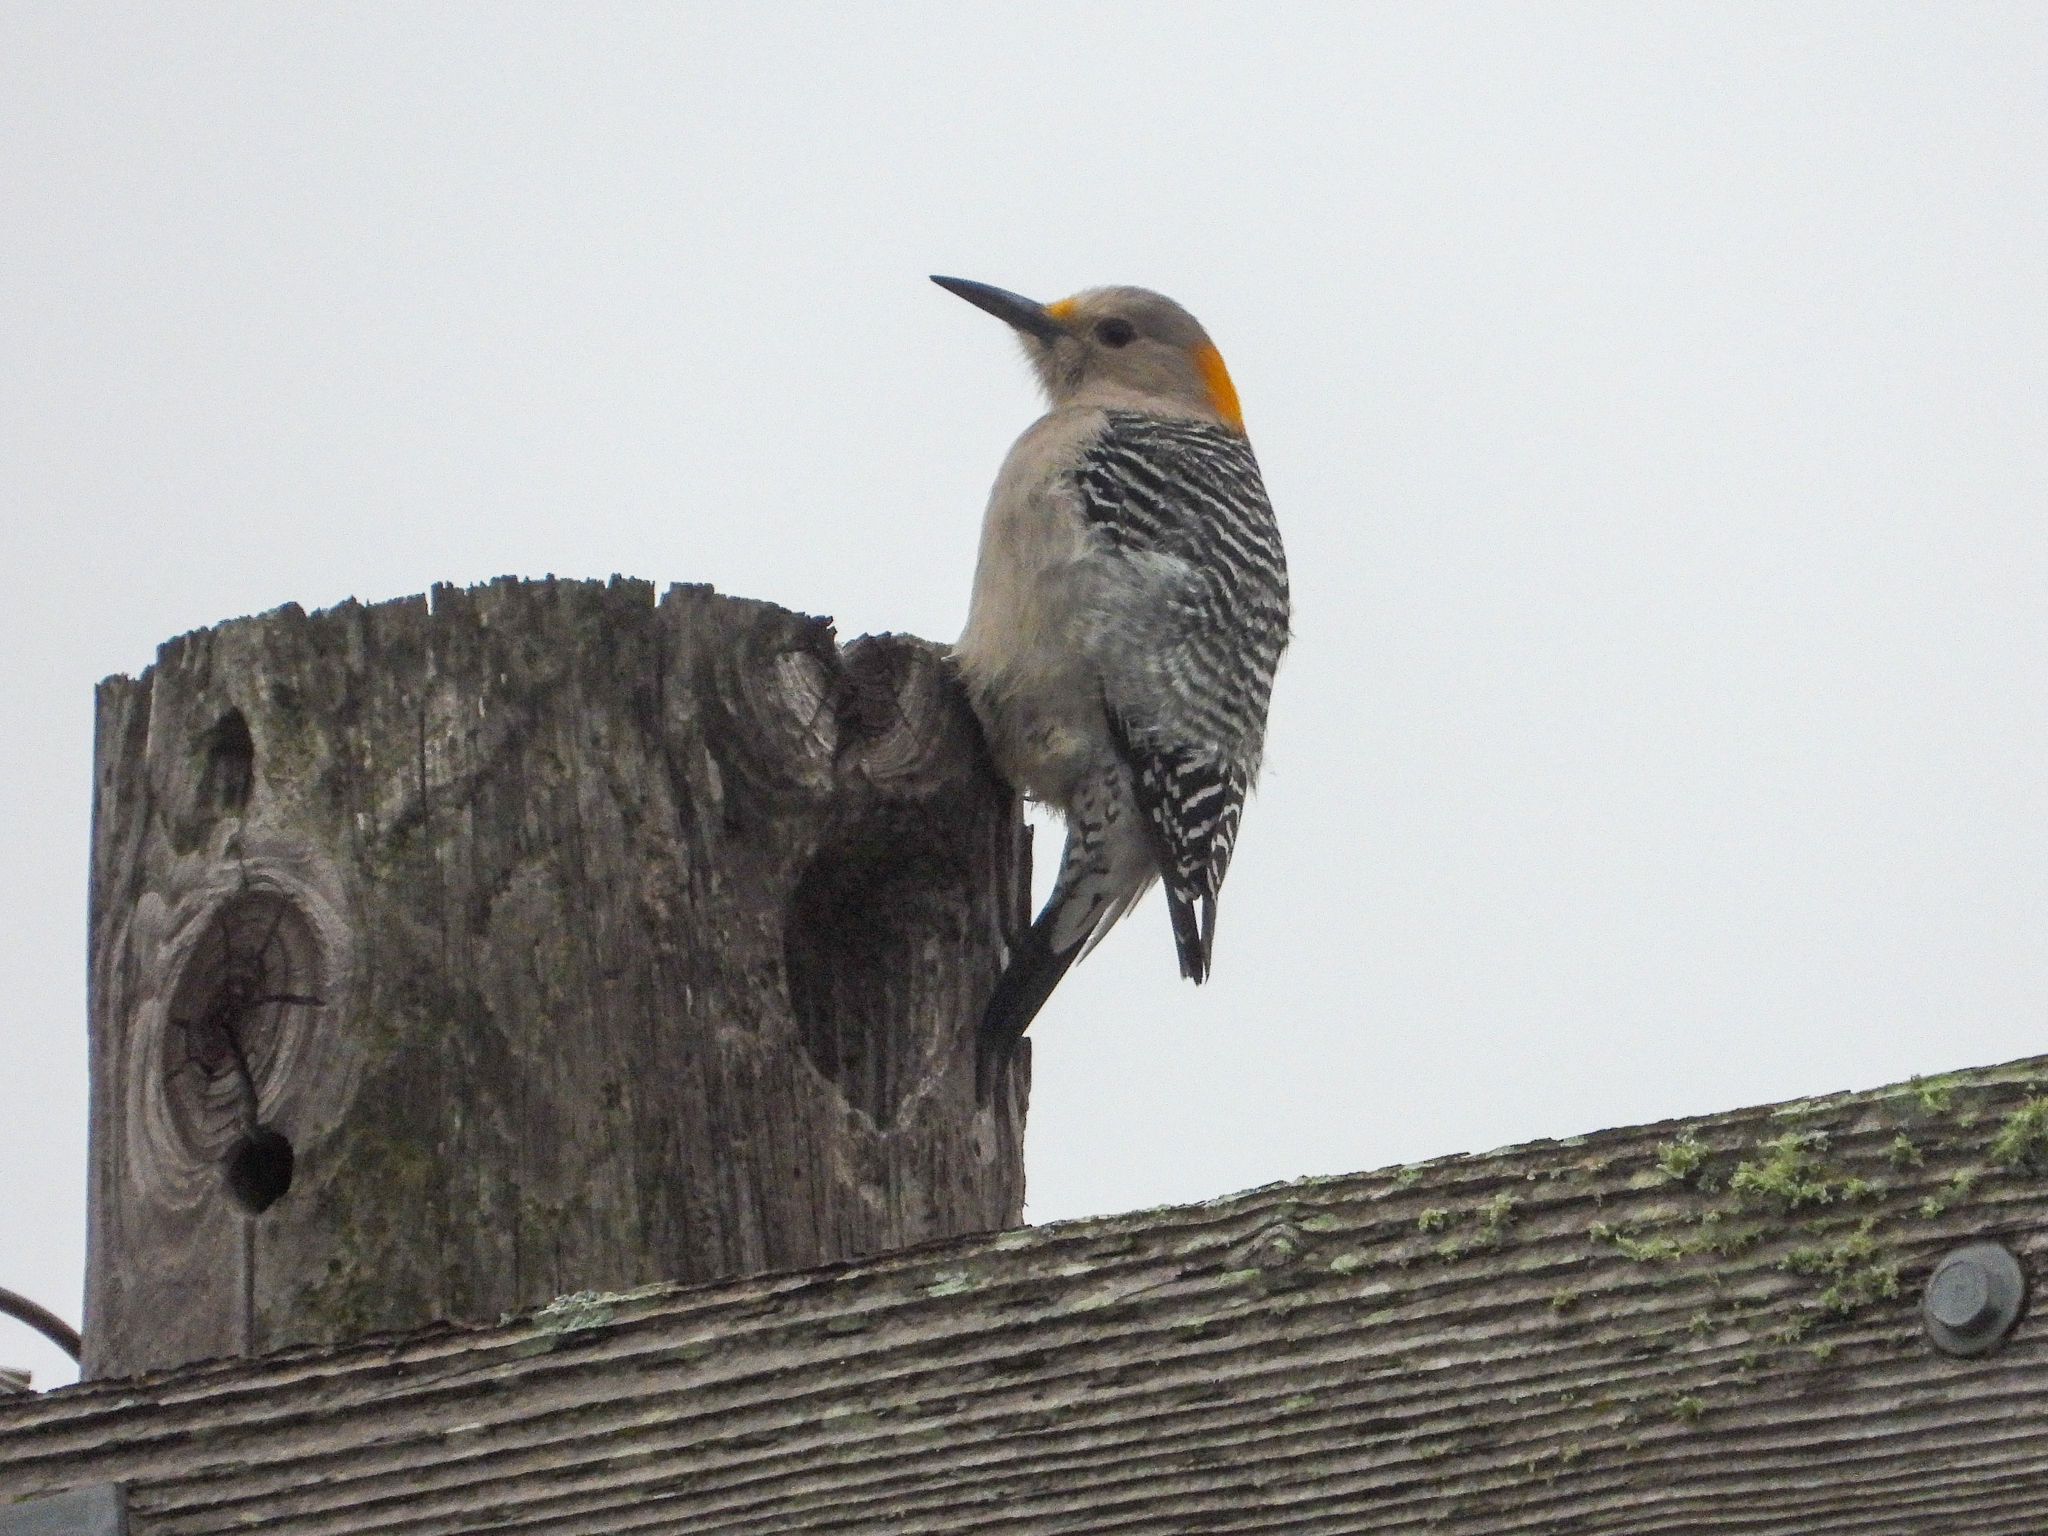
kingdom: Animalia
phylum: Chordata
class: Aves
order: Piciformes
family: Picidae
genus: Melanerpes
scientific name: Melanerpes aurifrons
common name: Golden-fronted woodpecker
